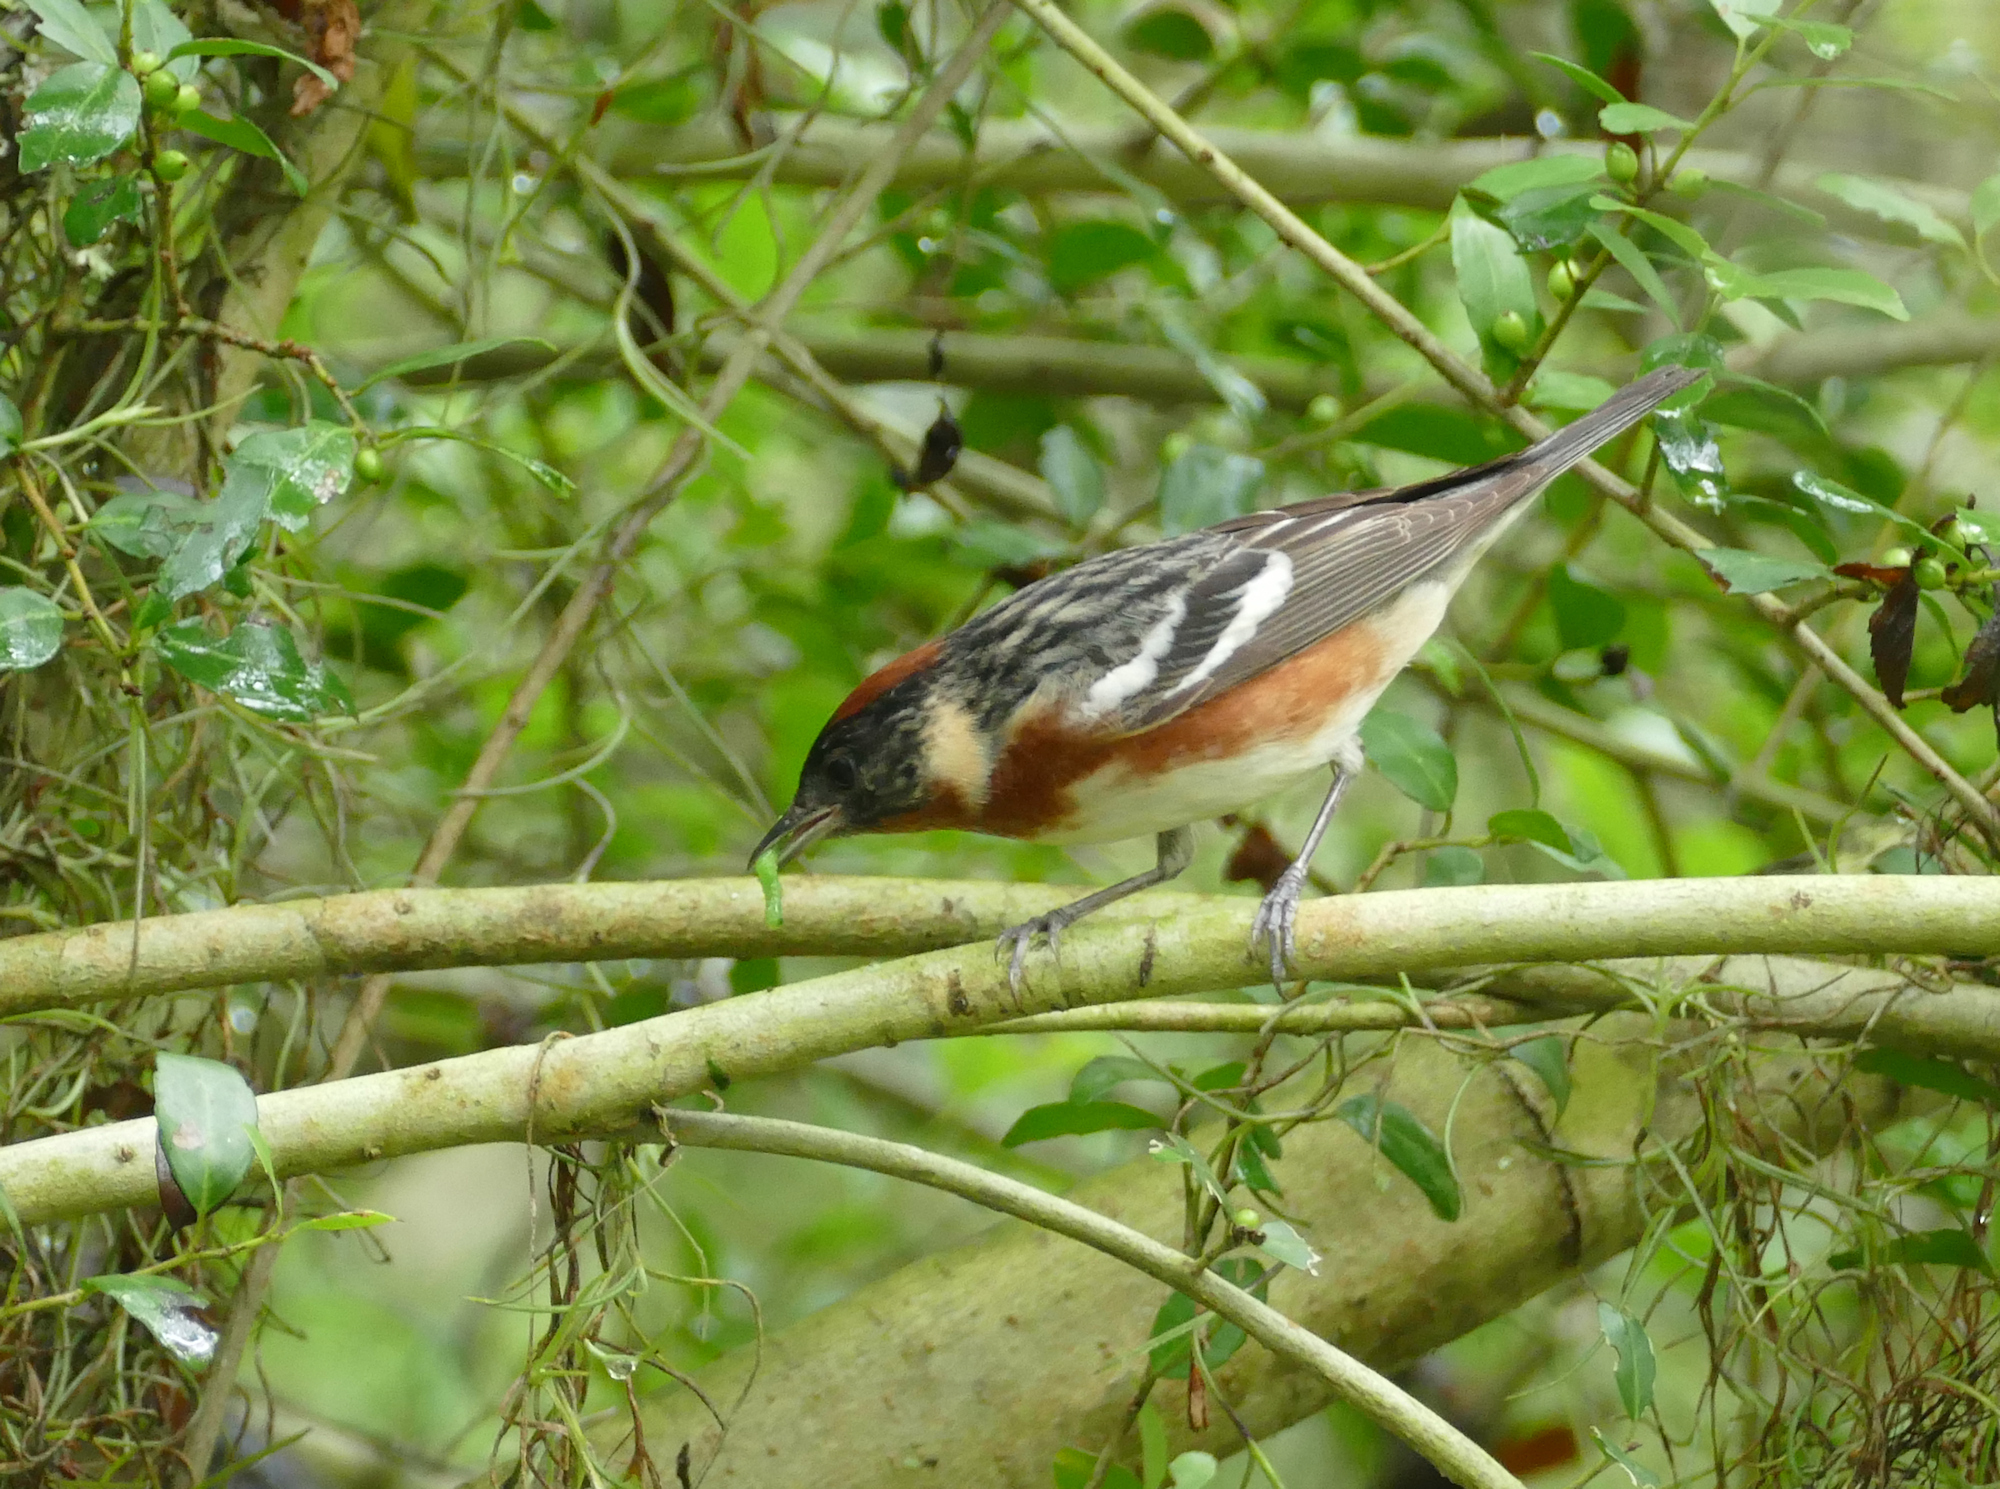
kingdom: Animalia
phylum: Chordata
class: Aves
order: Passeriformes
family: Parulidae
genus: Setophaga
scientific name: Setophaga castanea
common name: Bay-breasted warbler
